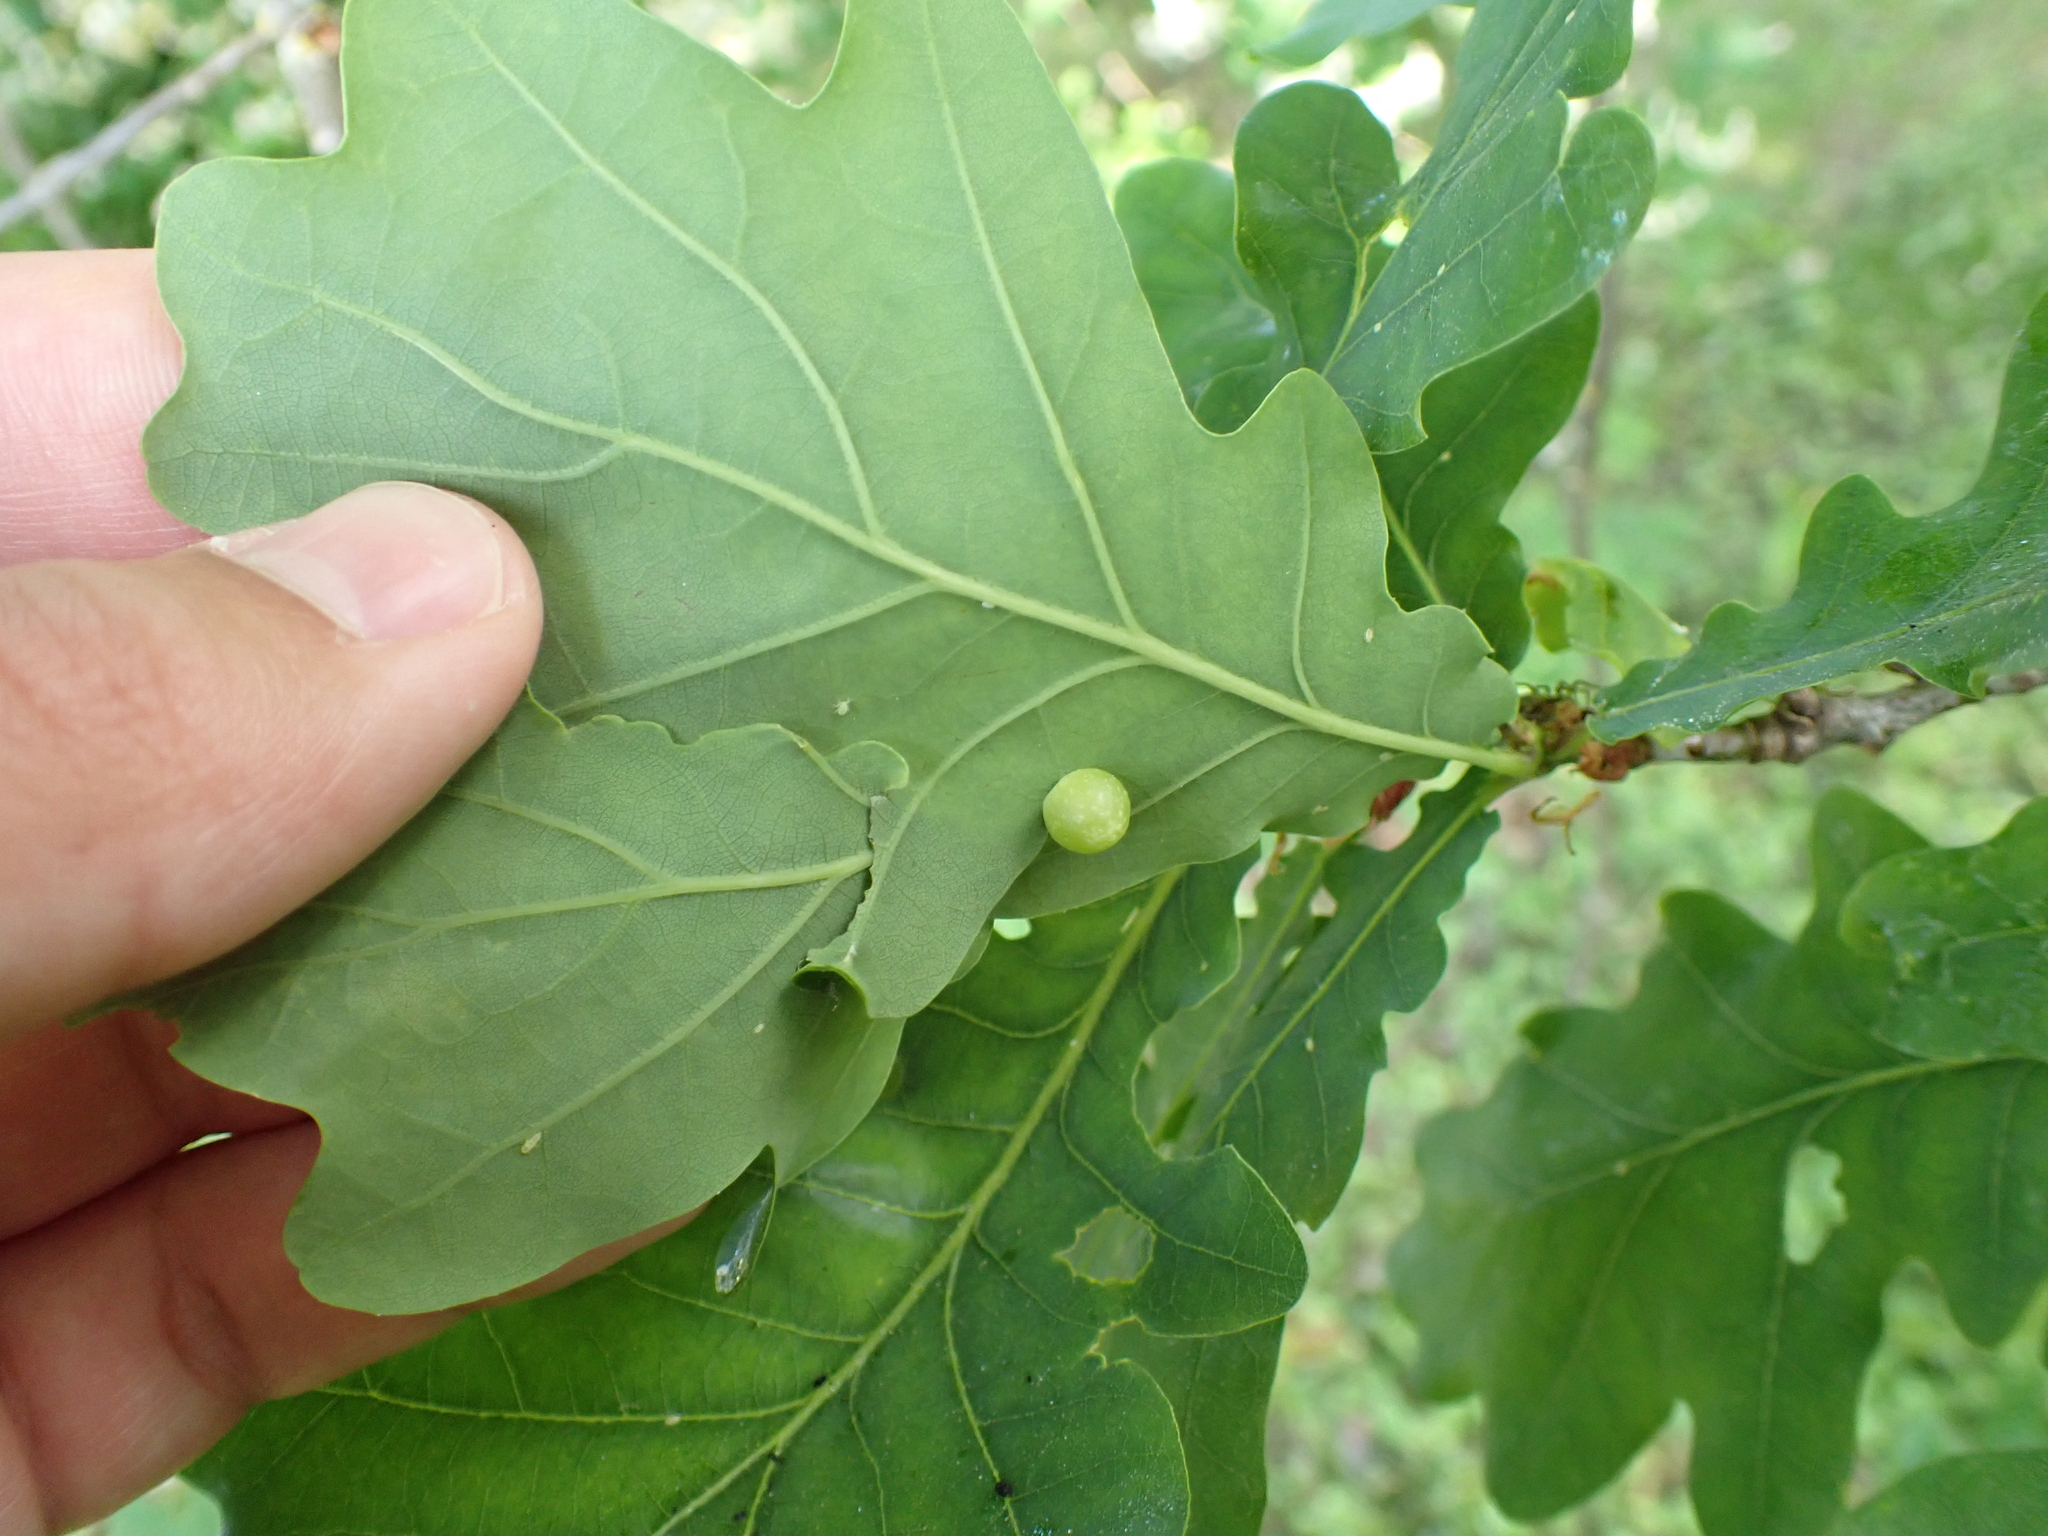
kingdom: Animalia
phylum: Arthropoda
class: Insecta
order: Hymenoptera
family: Cynipidae
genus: Neuroterus
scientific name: Neuroterus quercusbaccarum
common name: Common spangle gall
